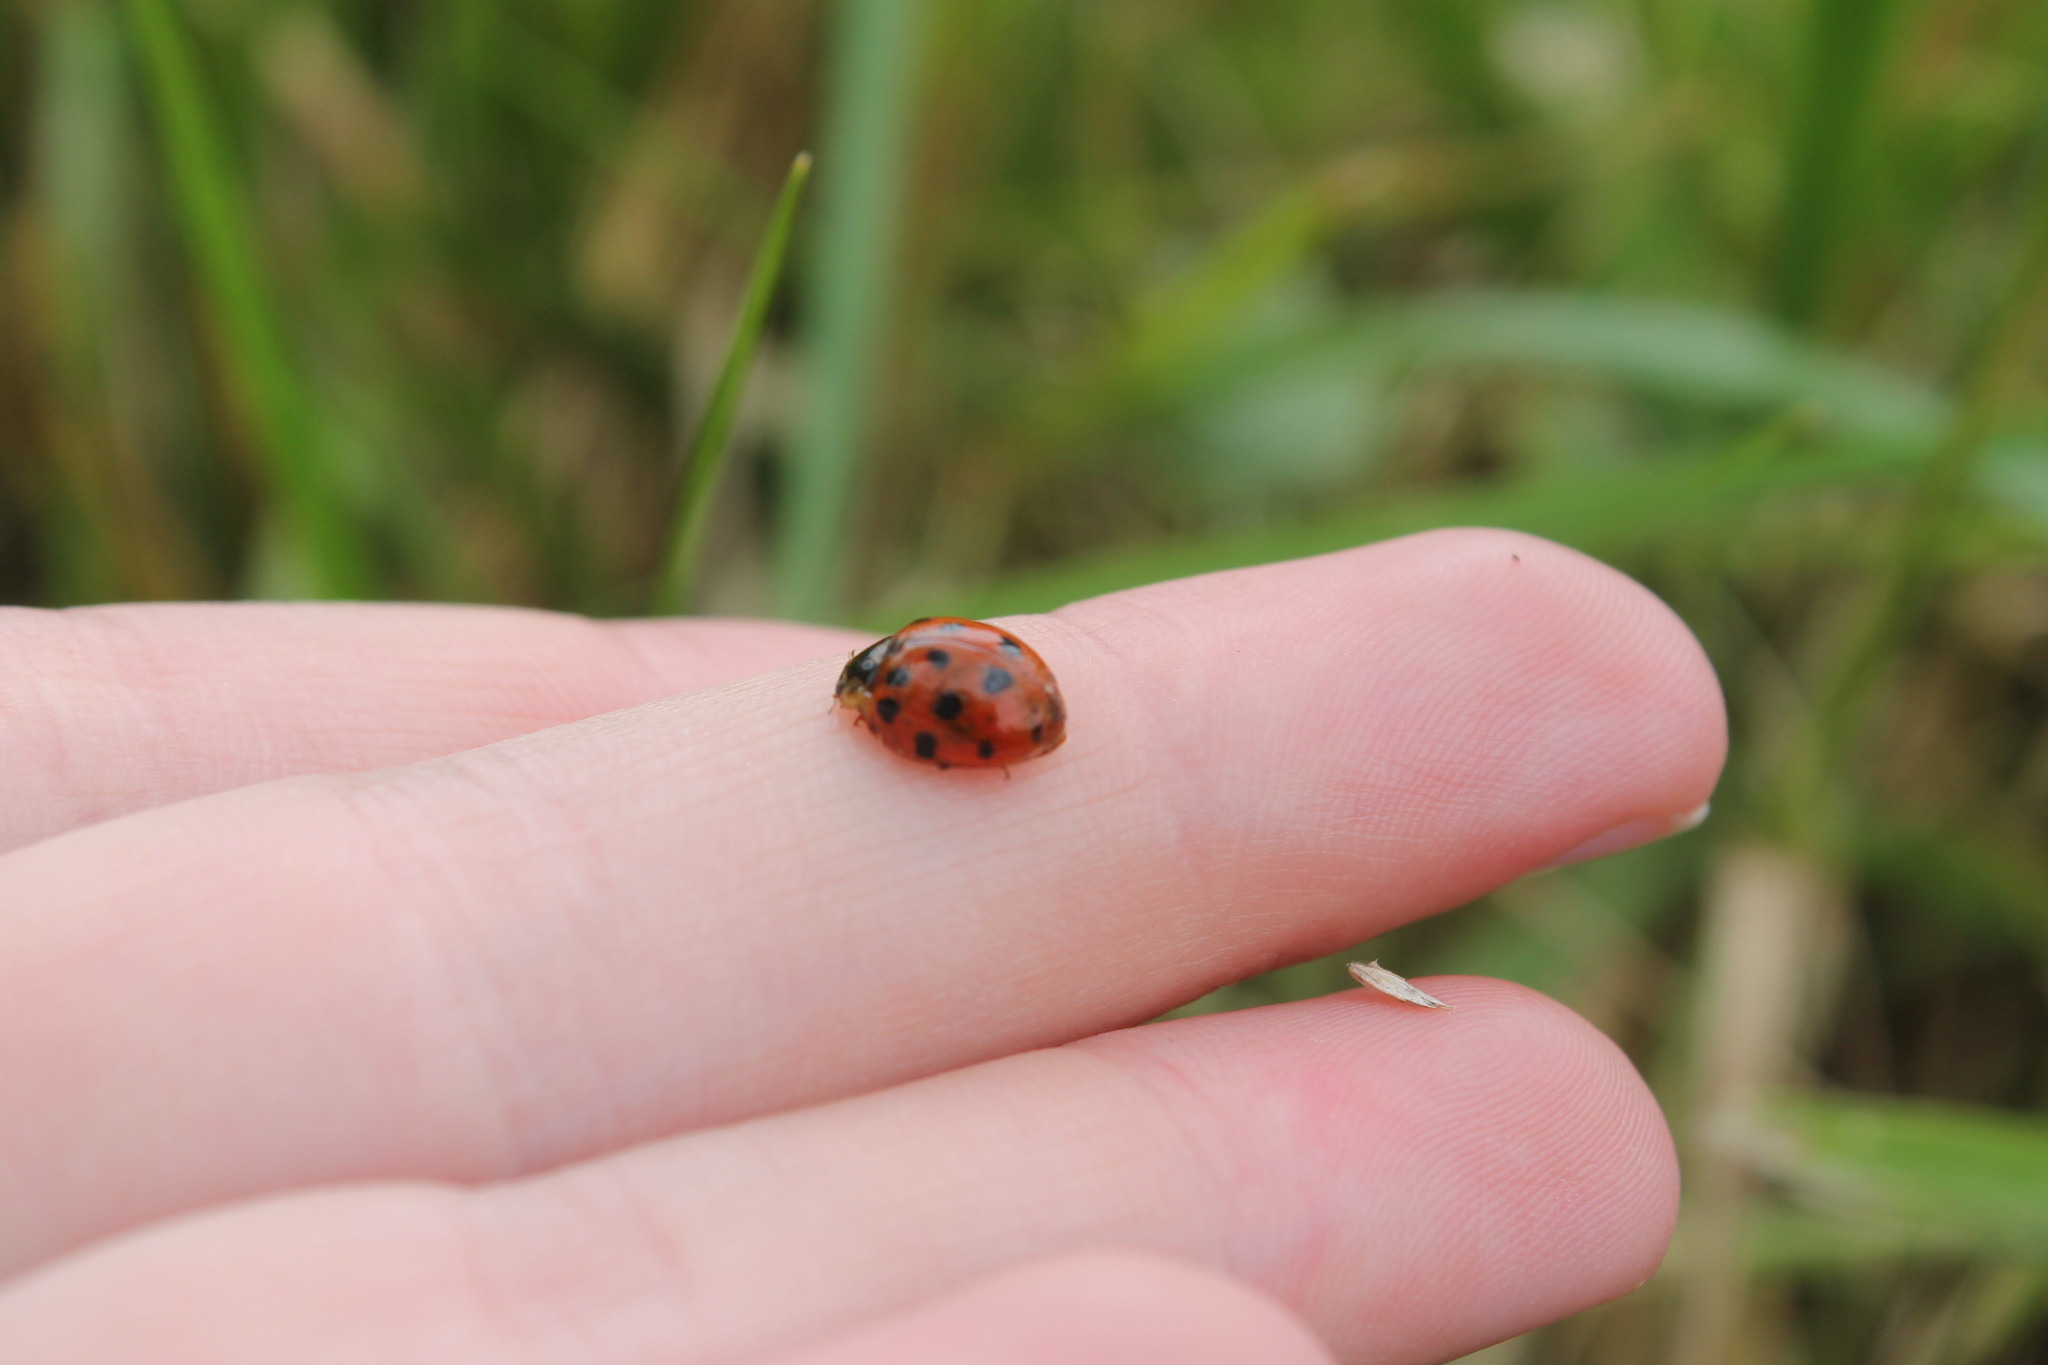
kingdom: Animalia
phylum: Arthropoda
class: Insecta
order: Coleoptera
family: Coccinellidae
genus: Harmonia
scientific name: Harmonia axyridis
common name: Harlequin ladybird
